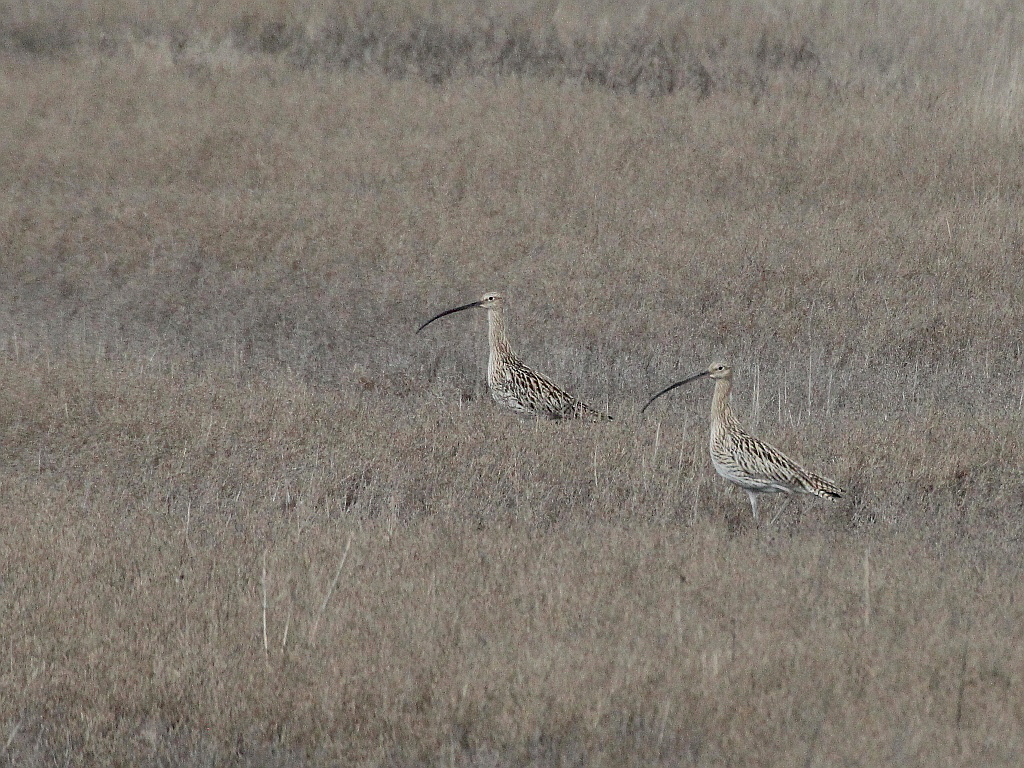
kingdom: Animalia
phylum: Chordata
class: Aves
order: Charadriiformes
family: Scolopacidae
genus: Numenius
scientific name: Numenius arquata
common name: Eurasian curlew
